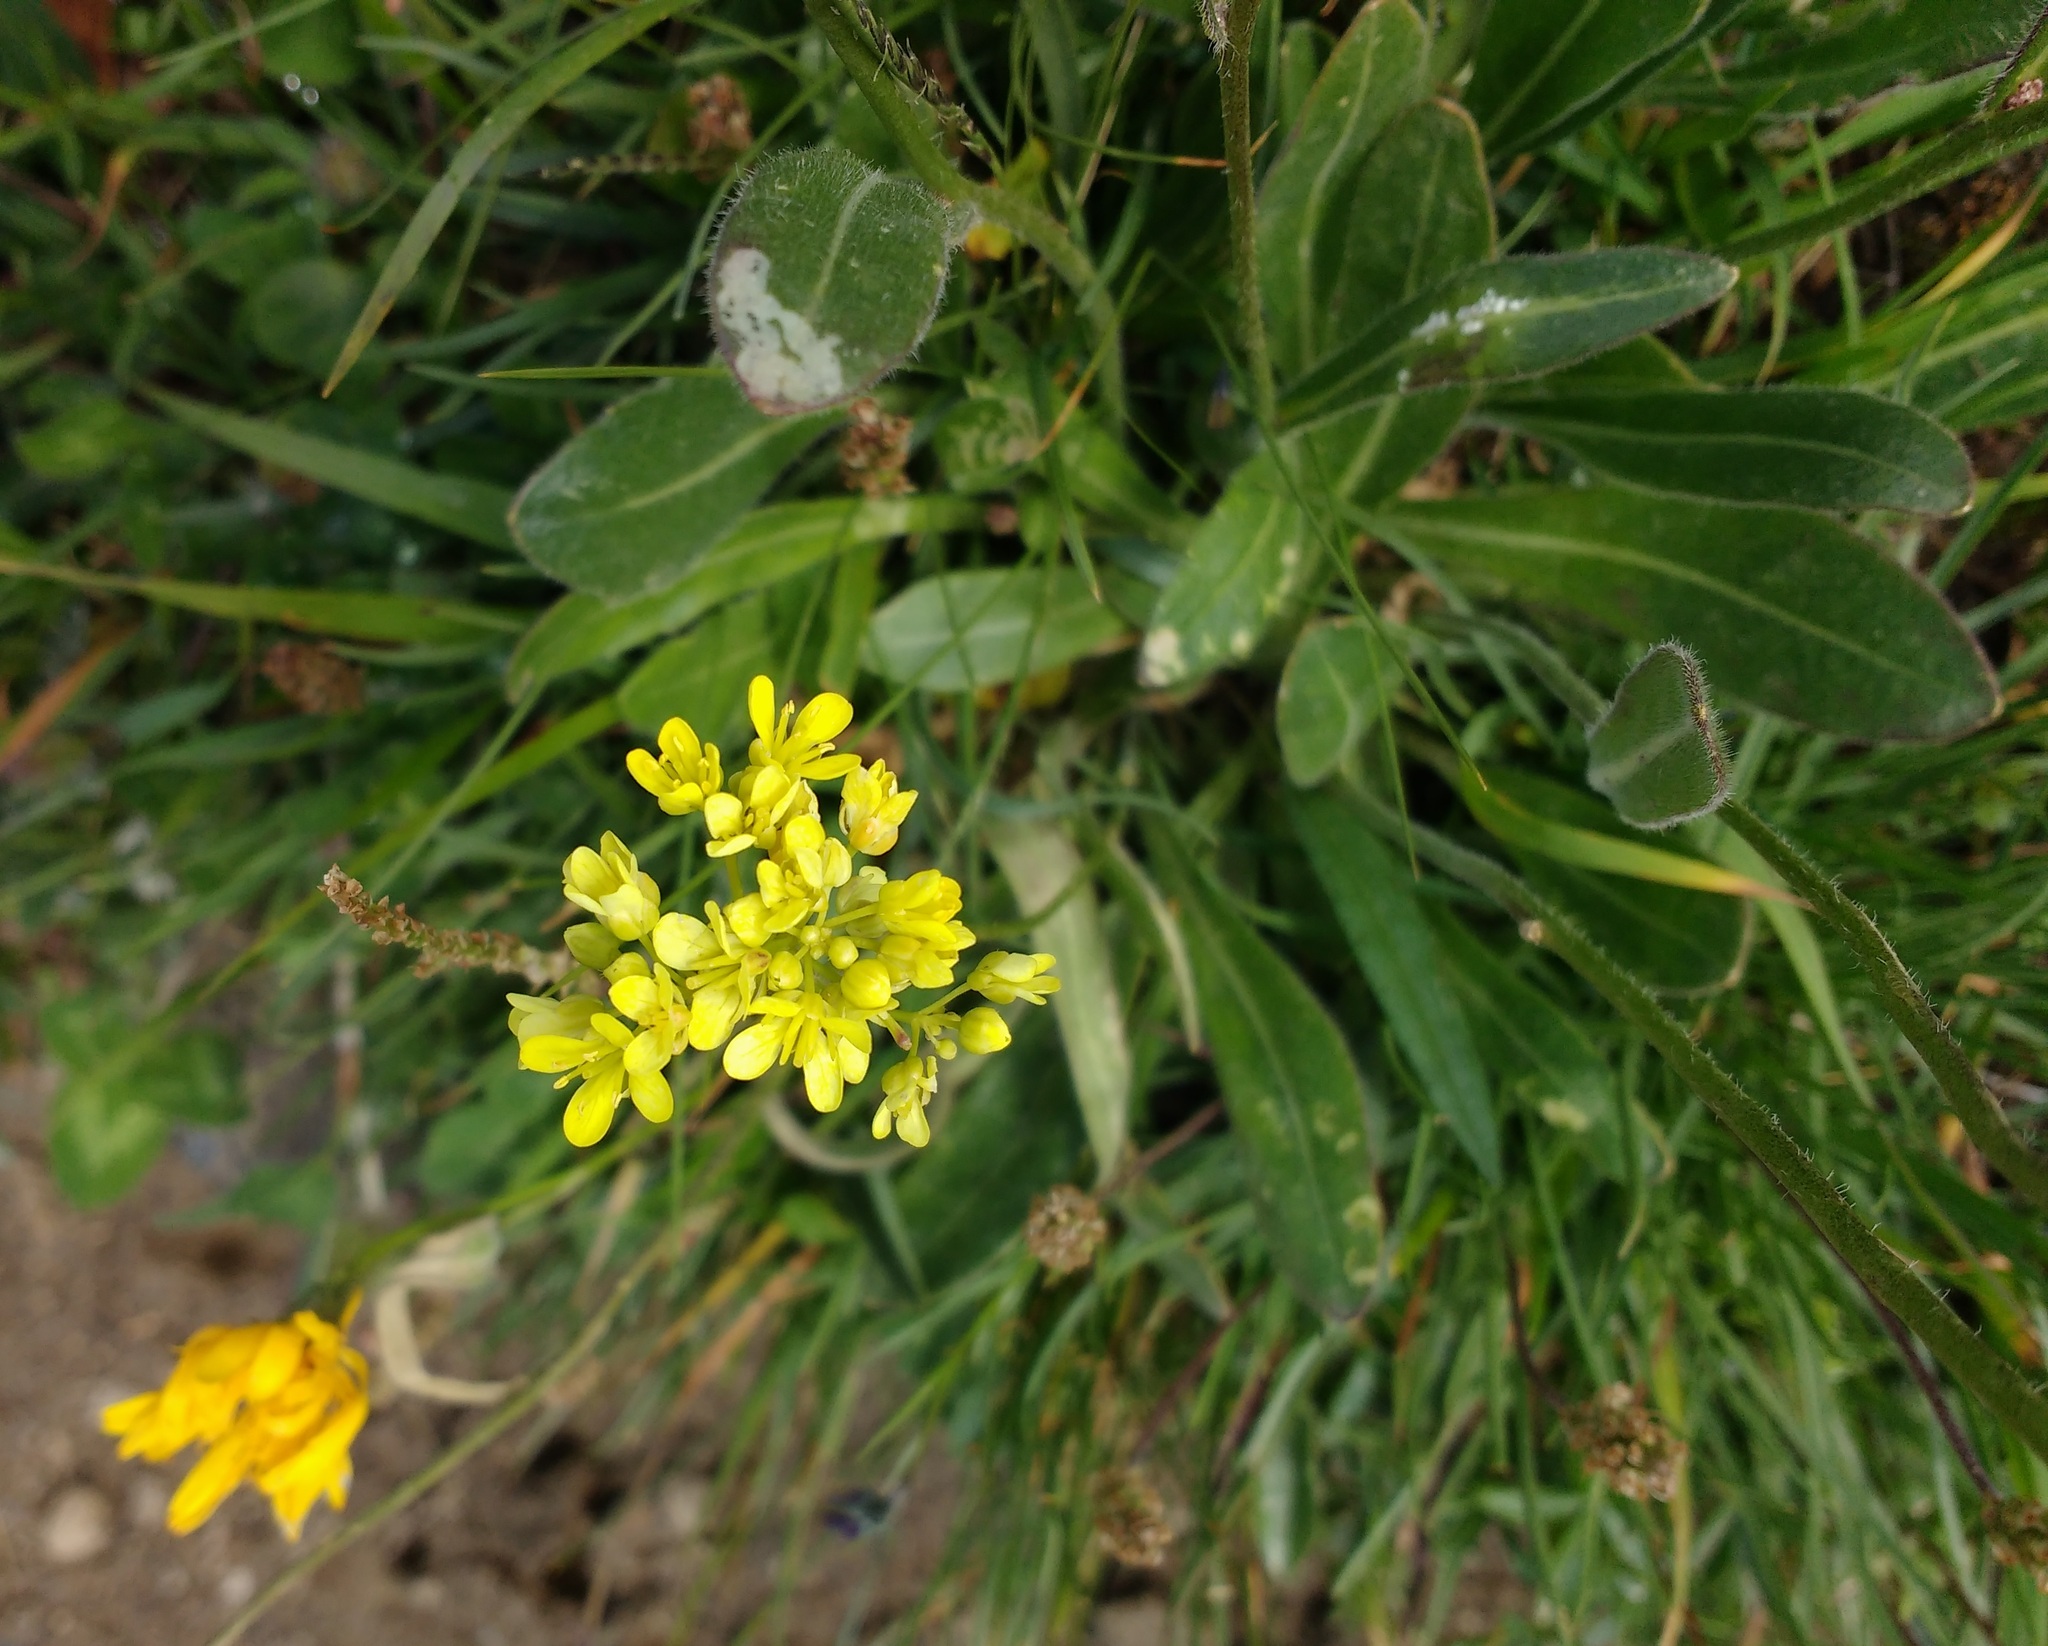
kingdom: Plantae
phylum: Tracheophyta
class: Magnoliopsida
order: Brassicales
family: Brassicaceae
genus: Biscutella
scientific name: Biscutella laevigata
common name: Buckler mustard
